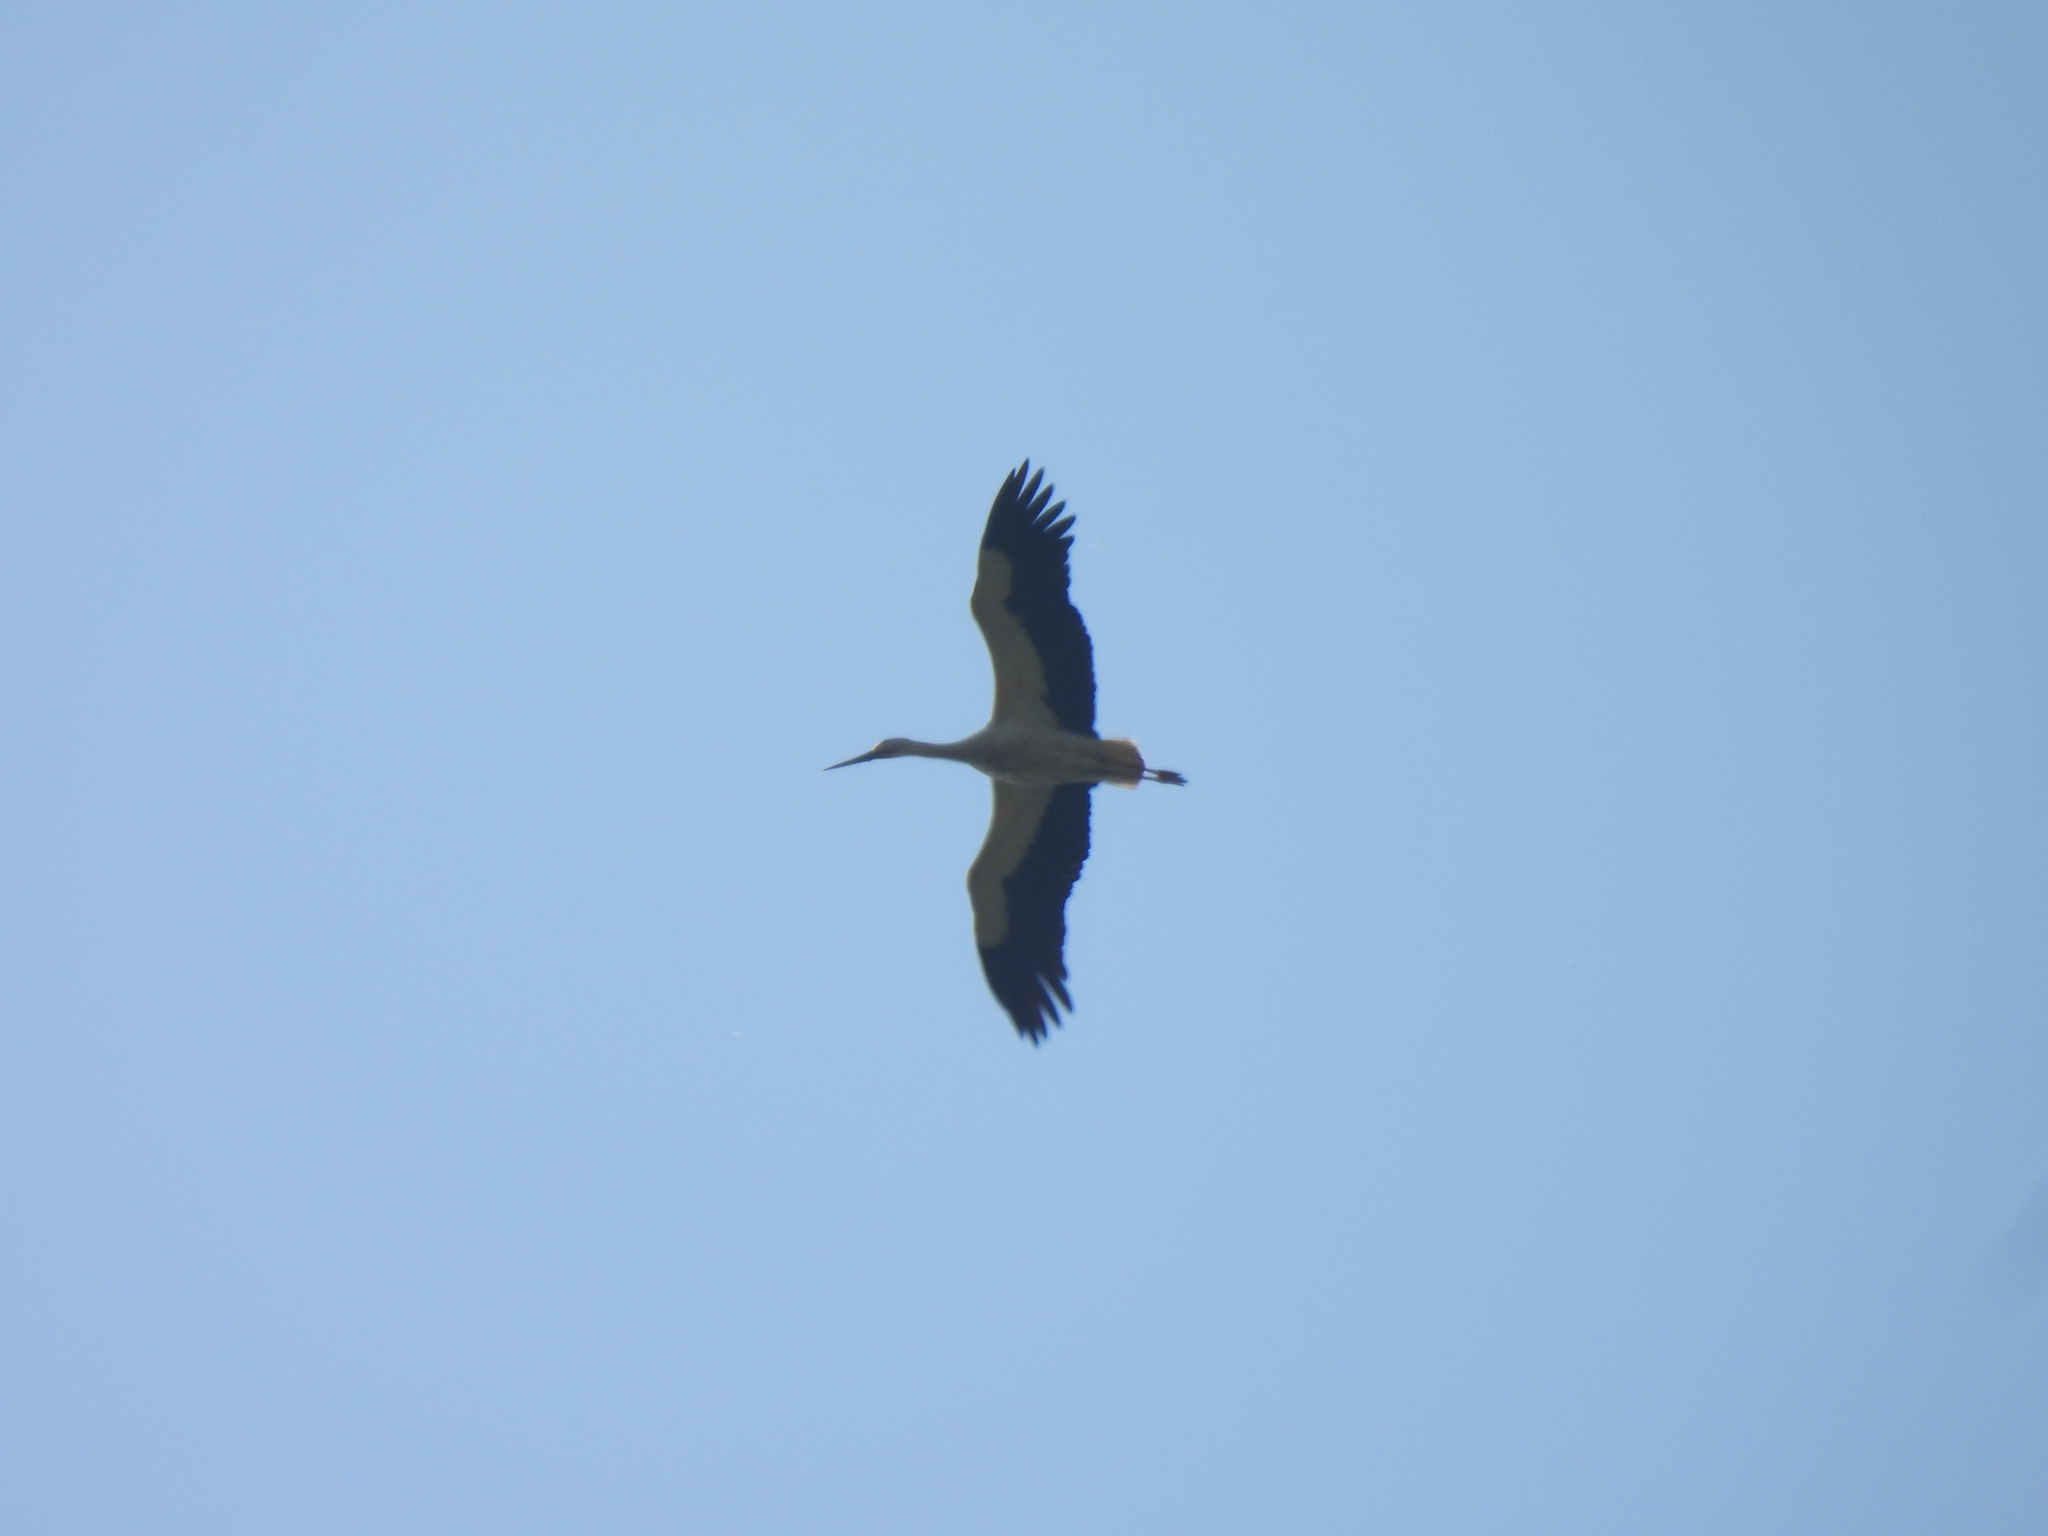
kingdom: Animalia
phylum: Chordata
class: Aves
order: Ciconiiformes
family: Ciconiidae
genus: Ciconia
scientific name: Ciconia ciconia
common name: White stork
